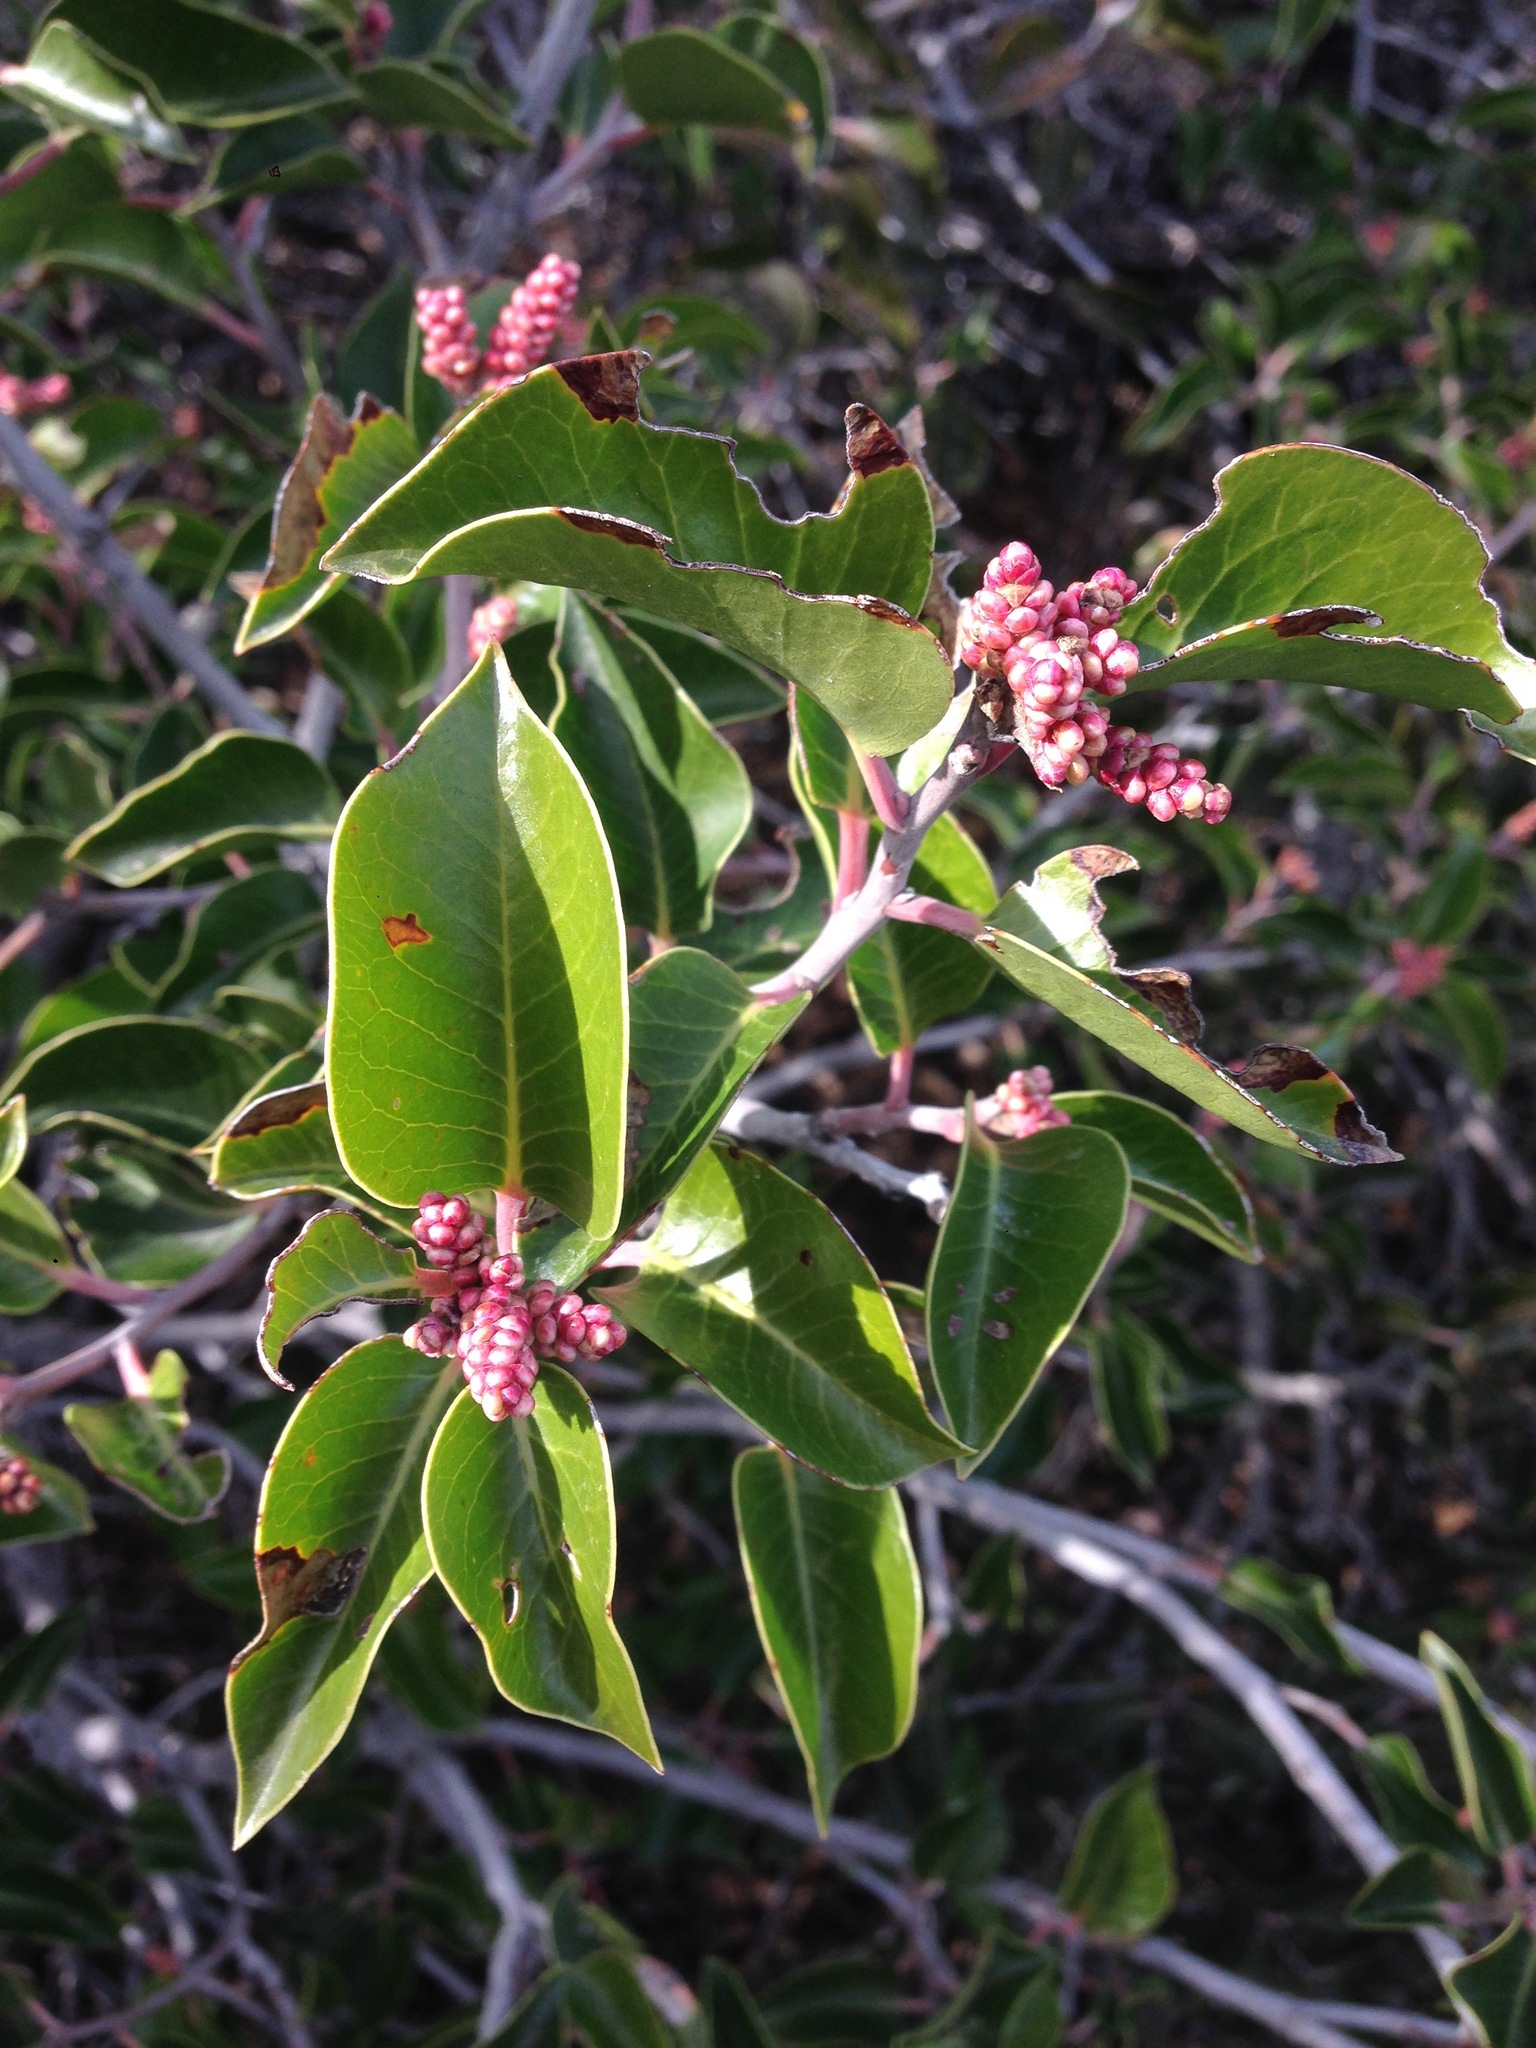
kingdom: Plantae
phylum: Tracheophyta
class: Magnoliopsida
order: Sapindales
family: Anacardiaceae
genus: Rhus
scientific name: Rhus ovata
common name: Sugar sumac
